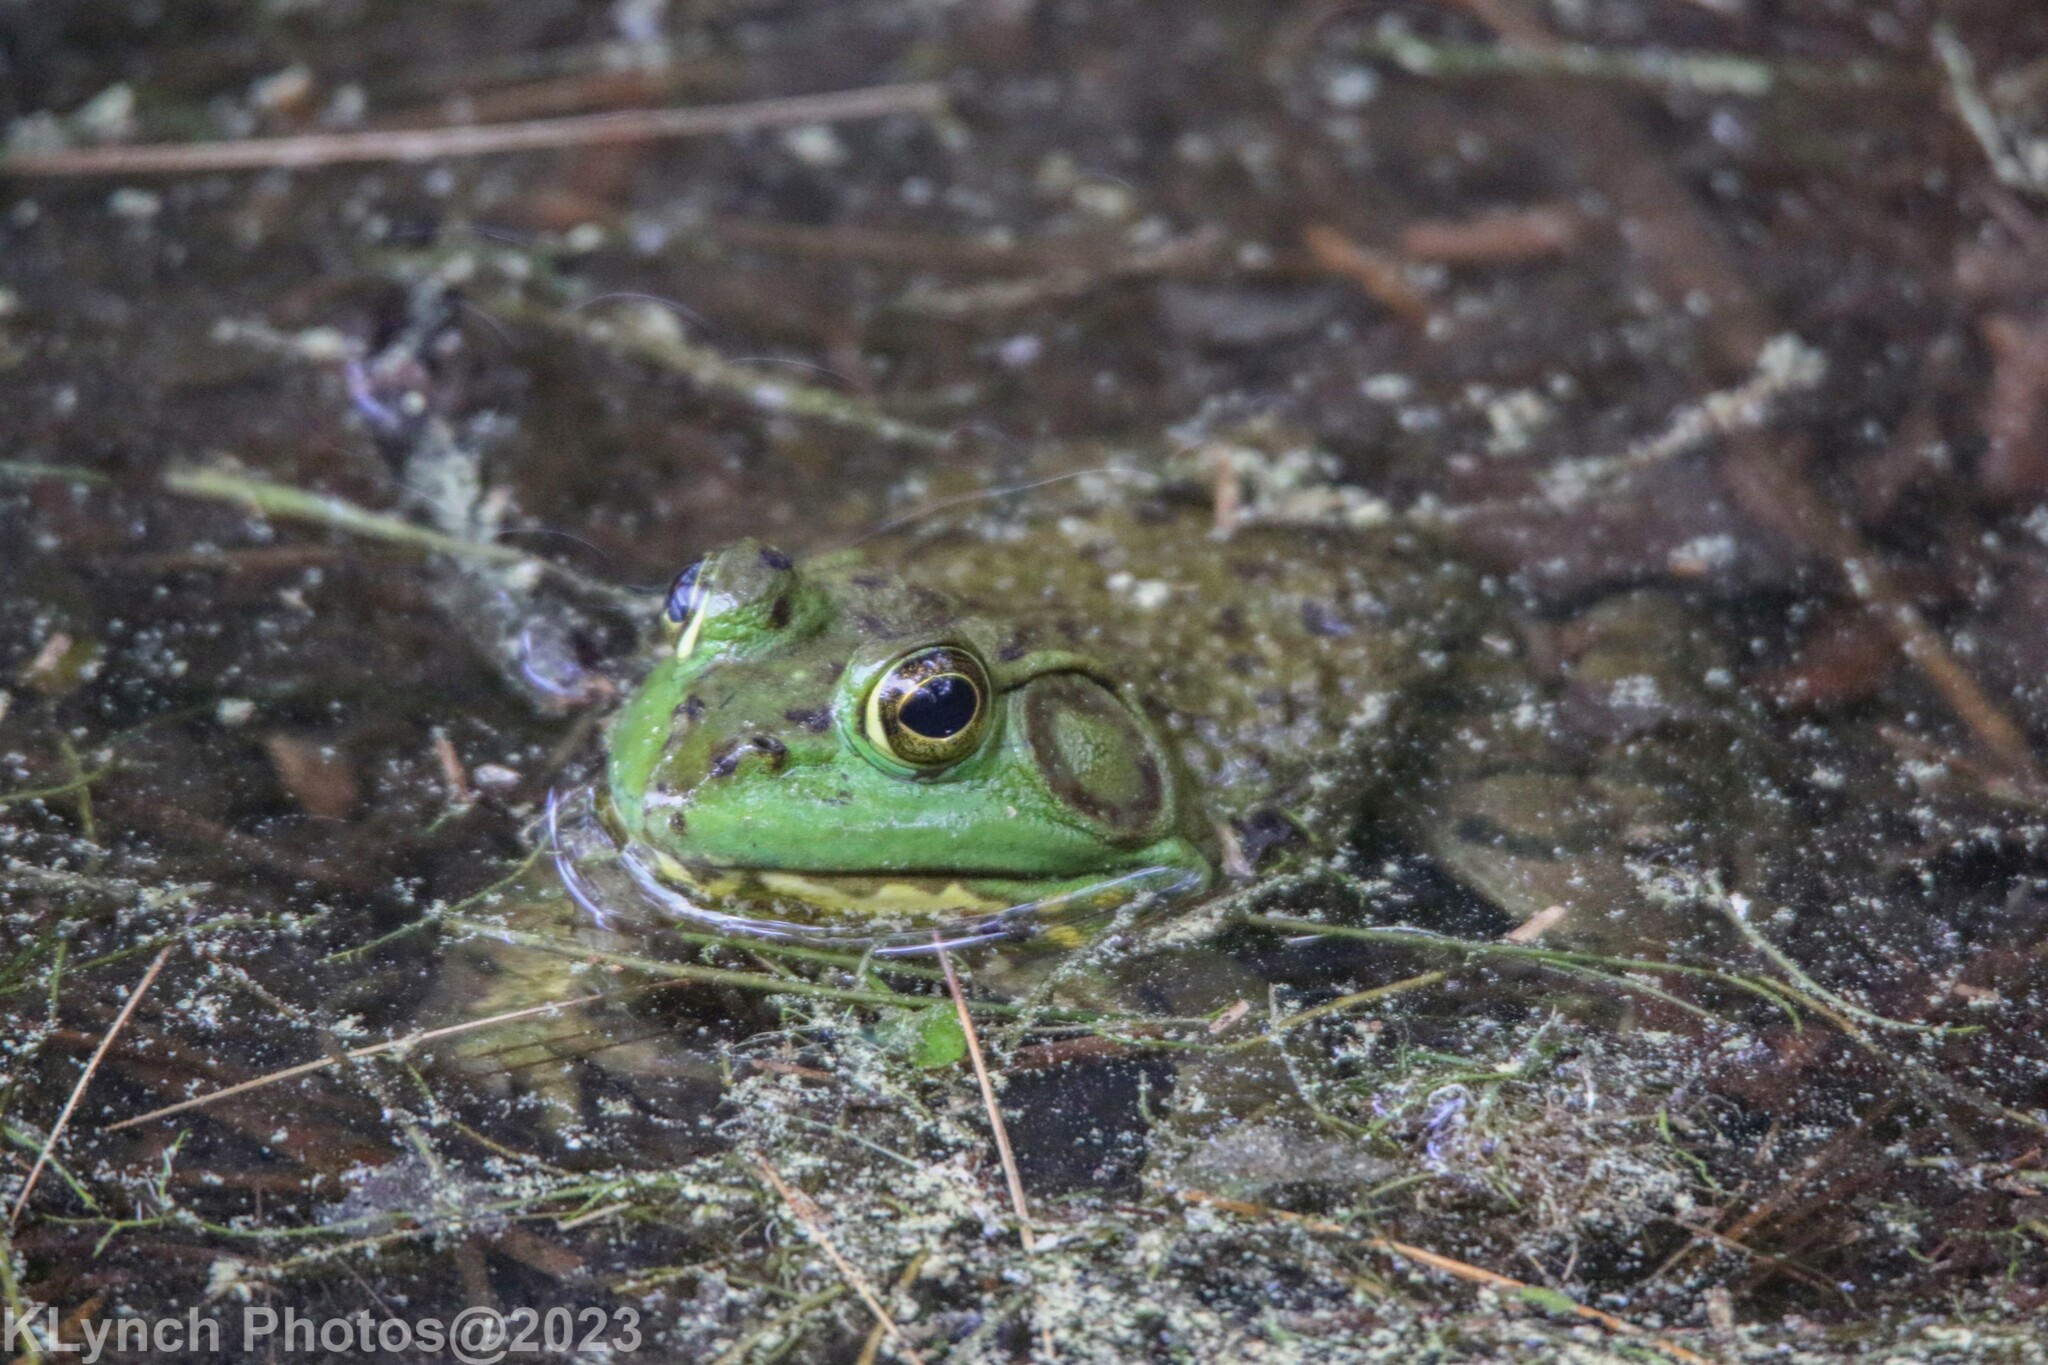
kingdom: Animalia
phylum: Chordata
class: Amphibia
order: Anura
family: Ranidae
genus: Lithobates
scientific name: Lithobates catesbeianus
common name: American bullfrog
